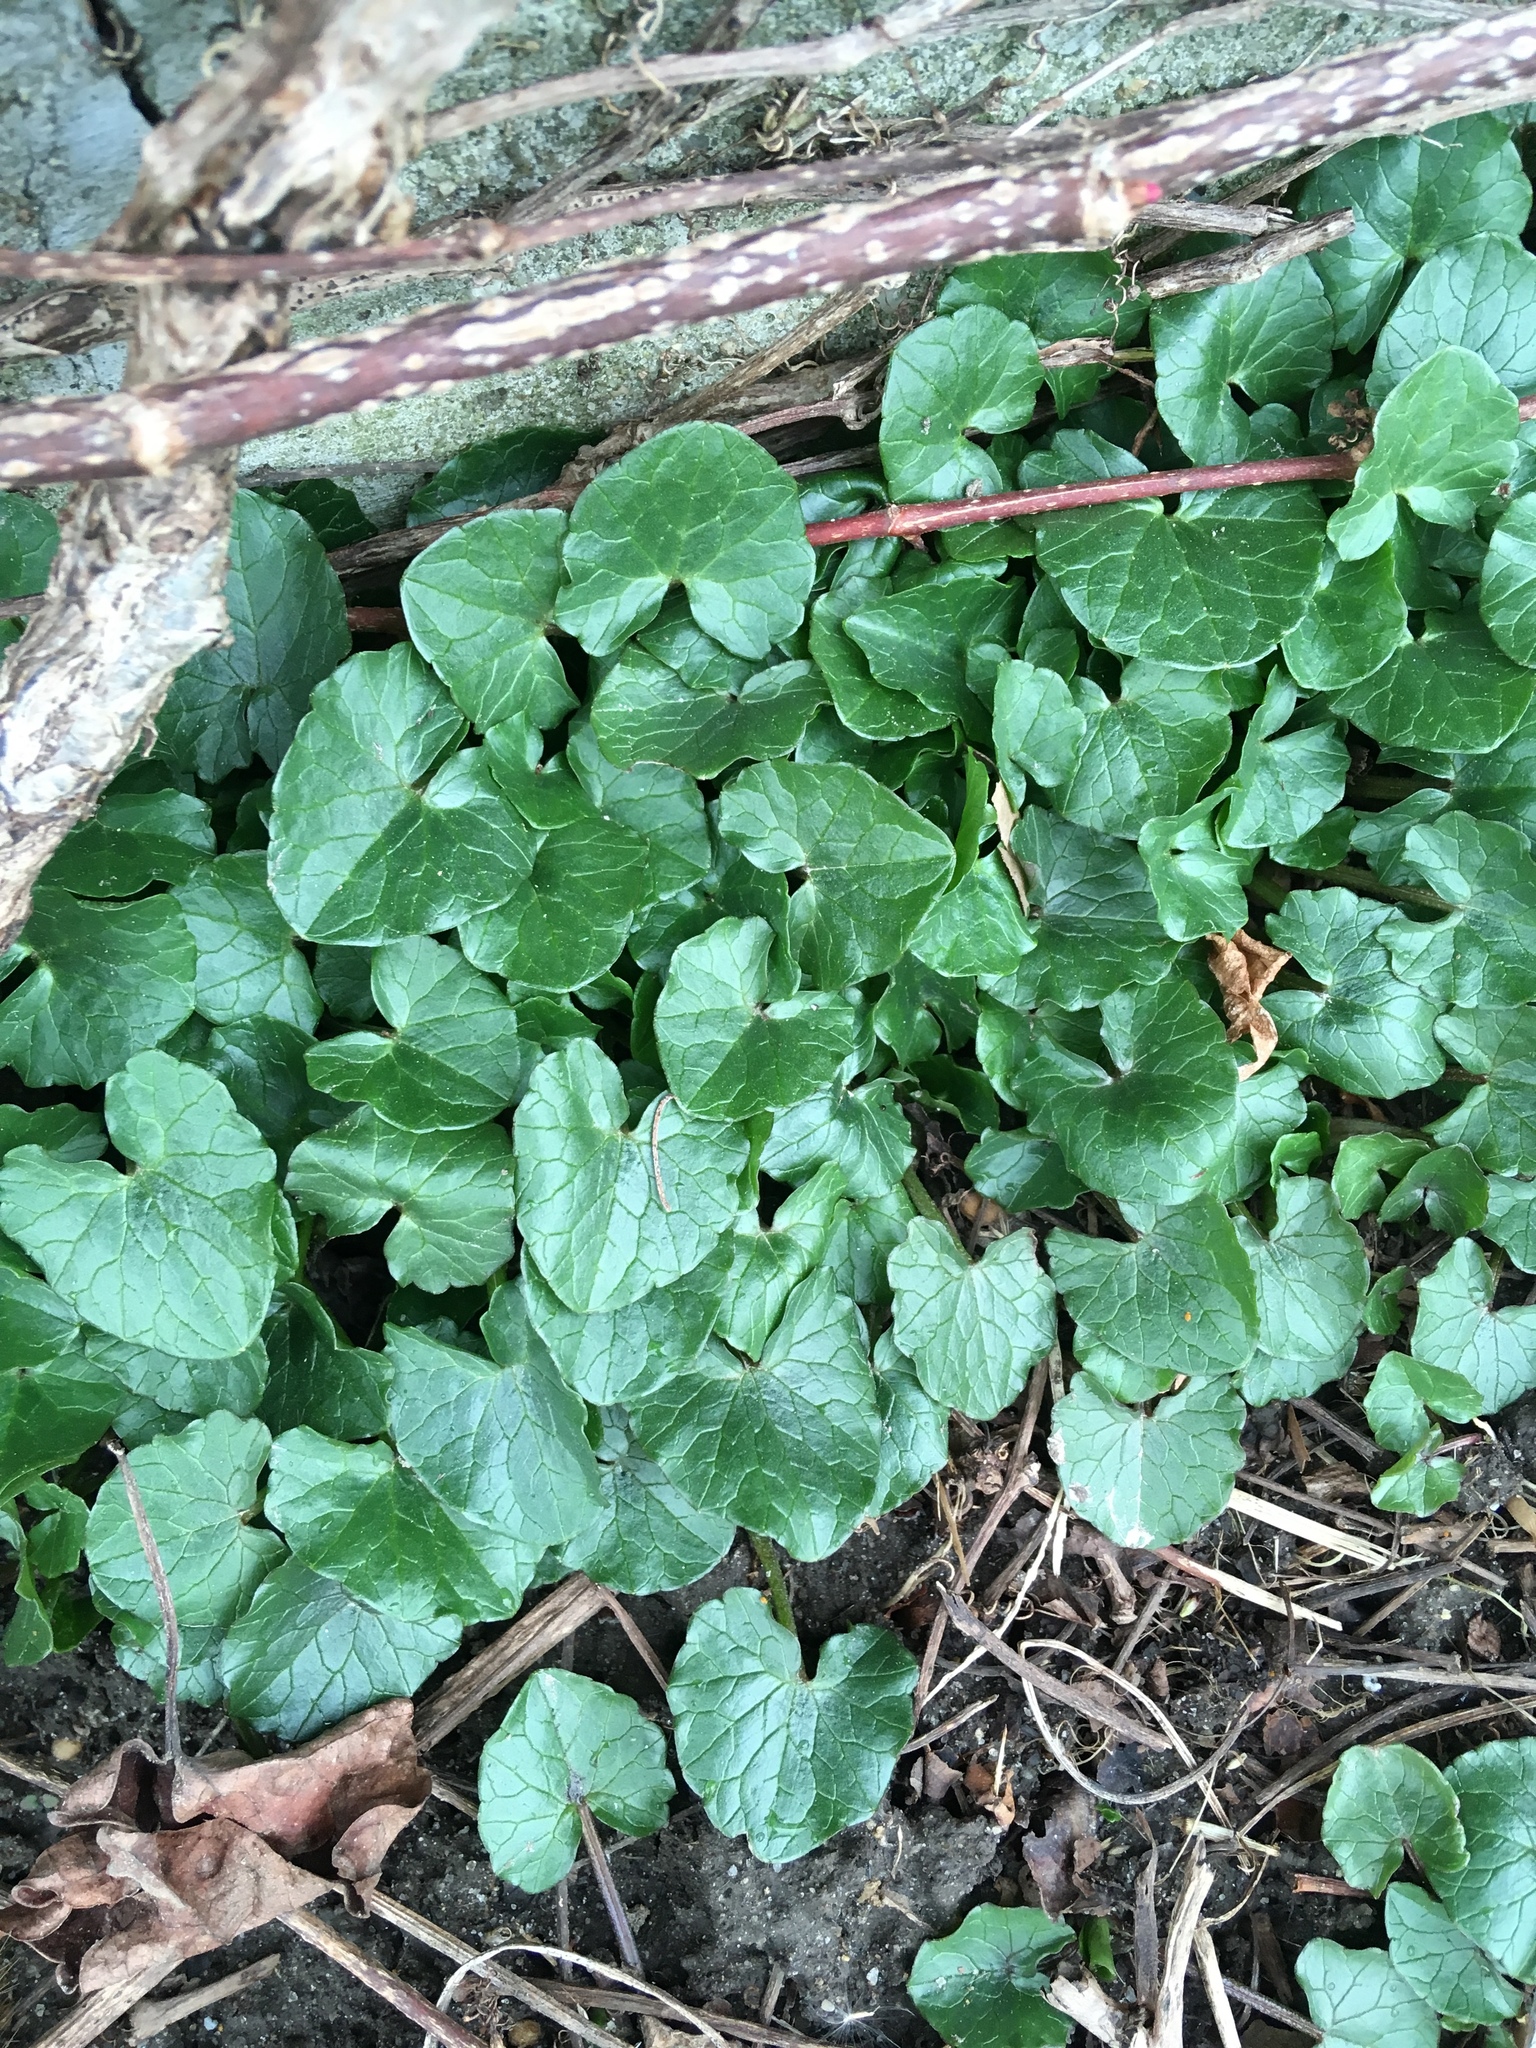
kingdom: Plantae
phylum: Tracheophyta
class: Magnoliopsida
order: Ranunculales
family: Ranunculaceae
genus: Ficaria
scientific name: Ficaria verna
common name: Lesser celandine
